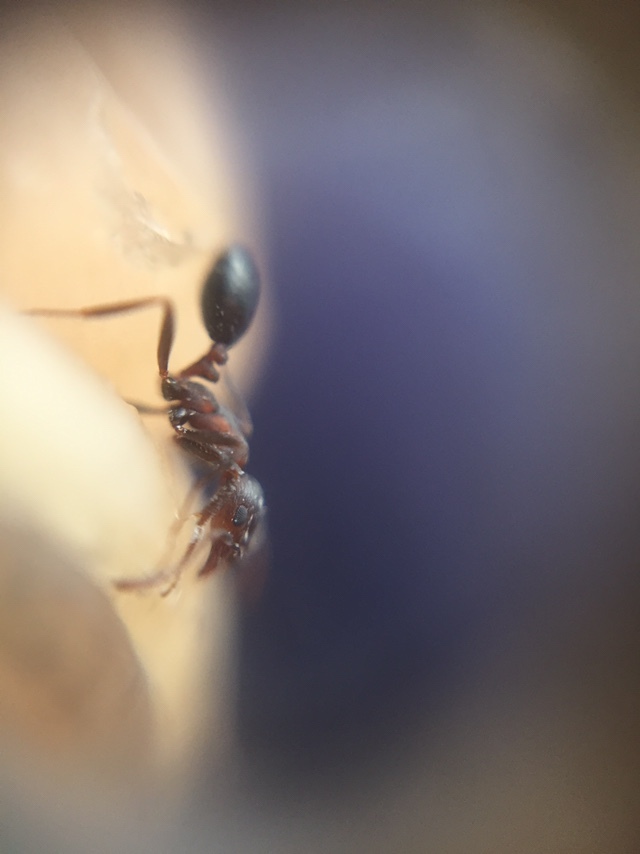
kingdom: Animalia
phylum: Arthropoda
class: Insecta
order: Hymenoptera
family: Formicidae
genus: Monomorium
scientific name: Monomorium indicum
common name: Ant
